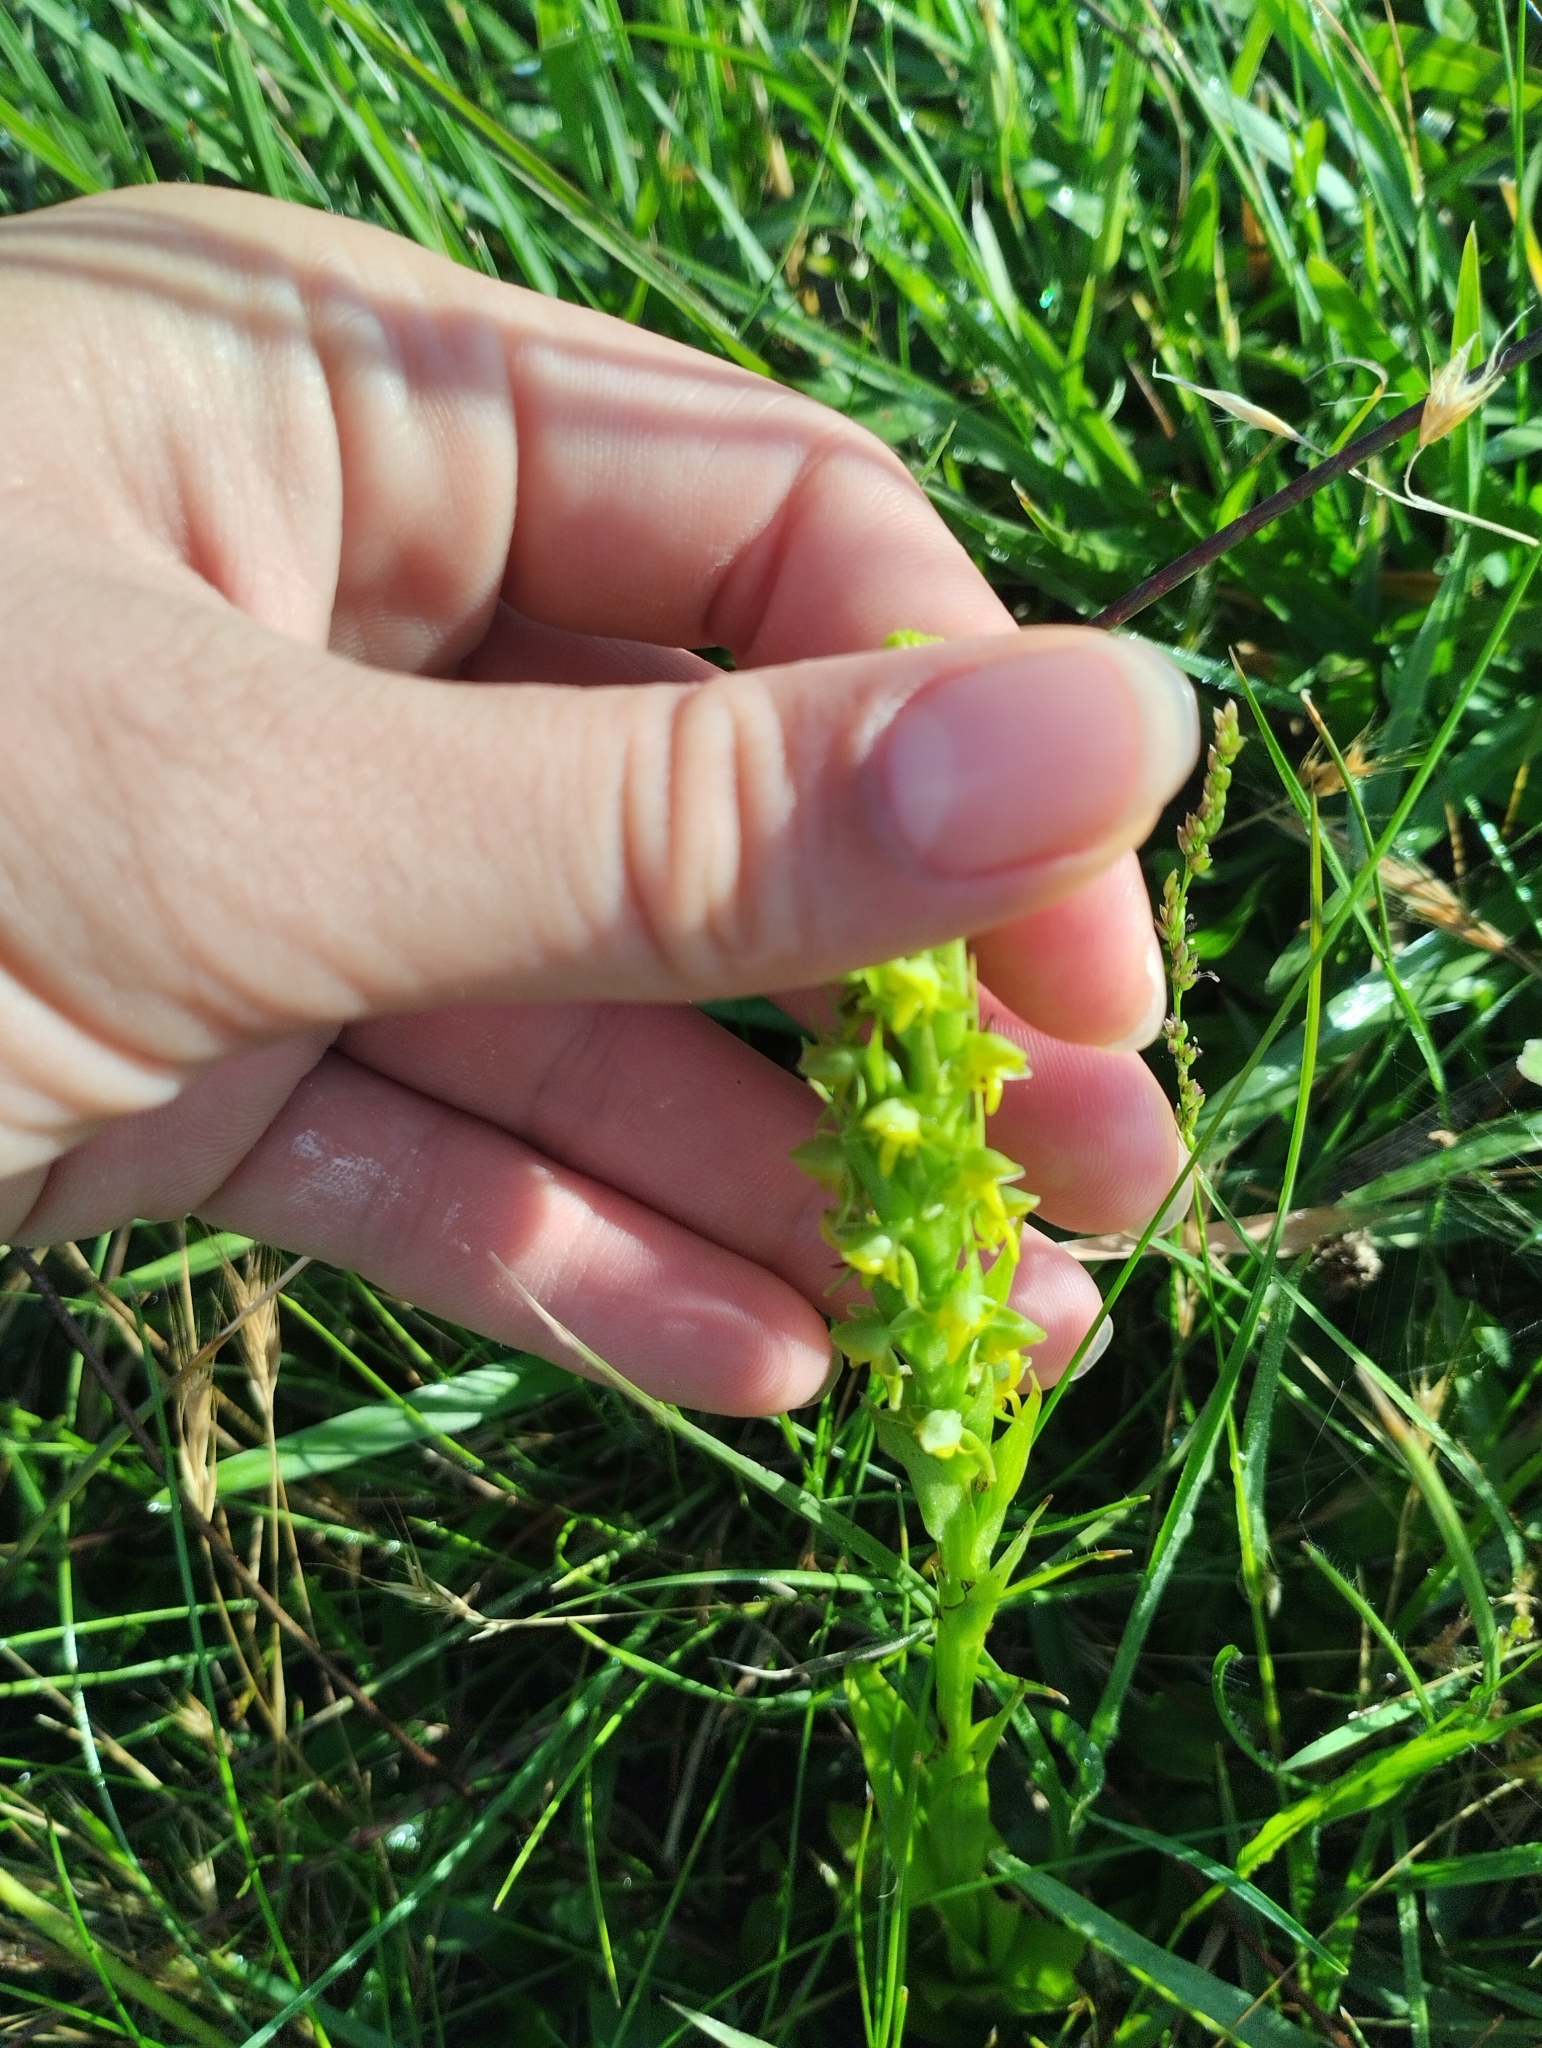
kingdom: Plantae
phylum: Tracheophyta
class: Liliopsida
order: Asparagales
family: Orchidaceae
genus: Habenaria
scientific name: Habenaria parviflora
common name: Small flowered habenaria
